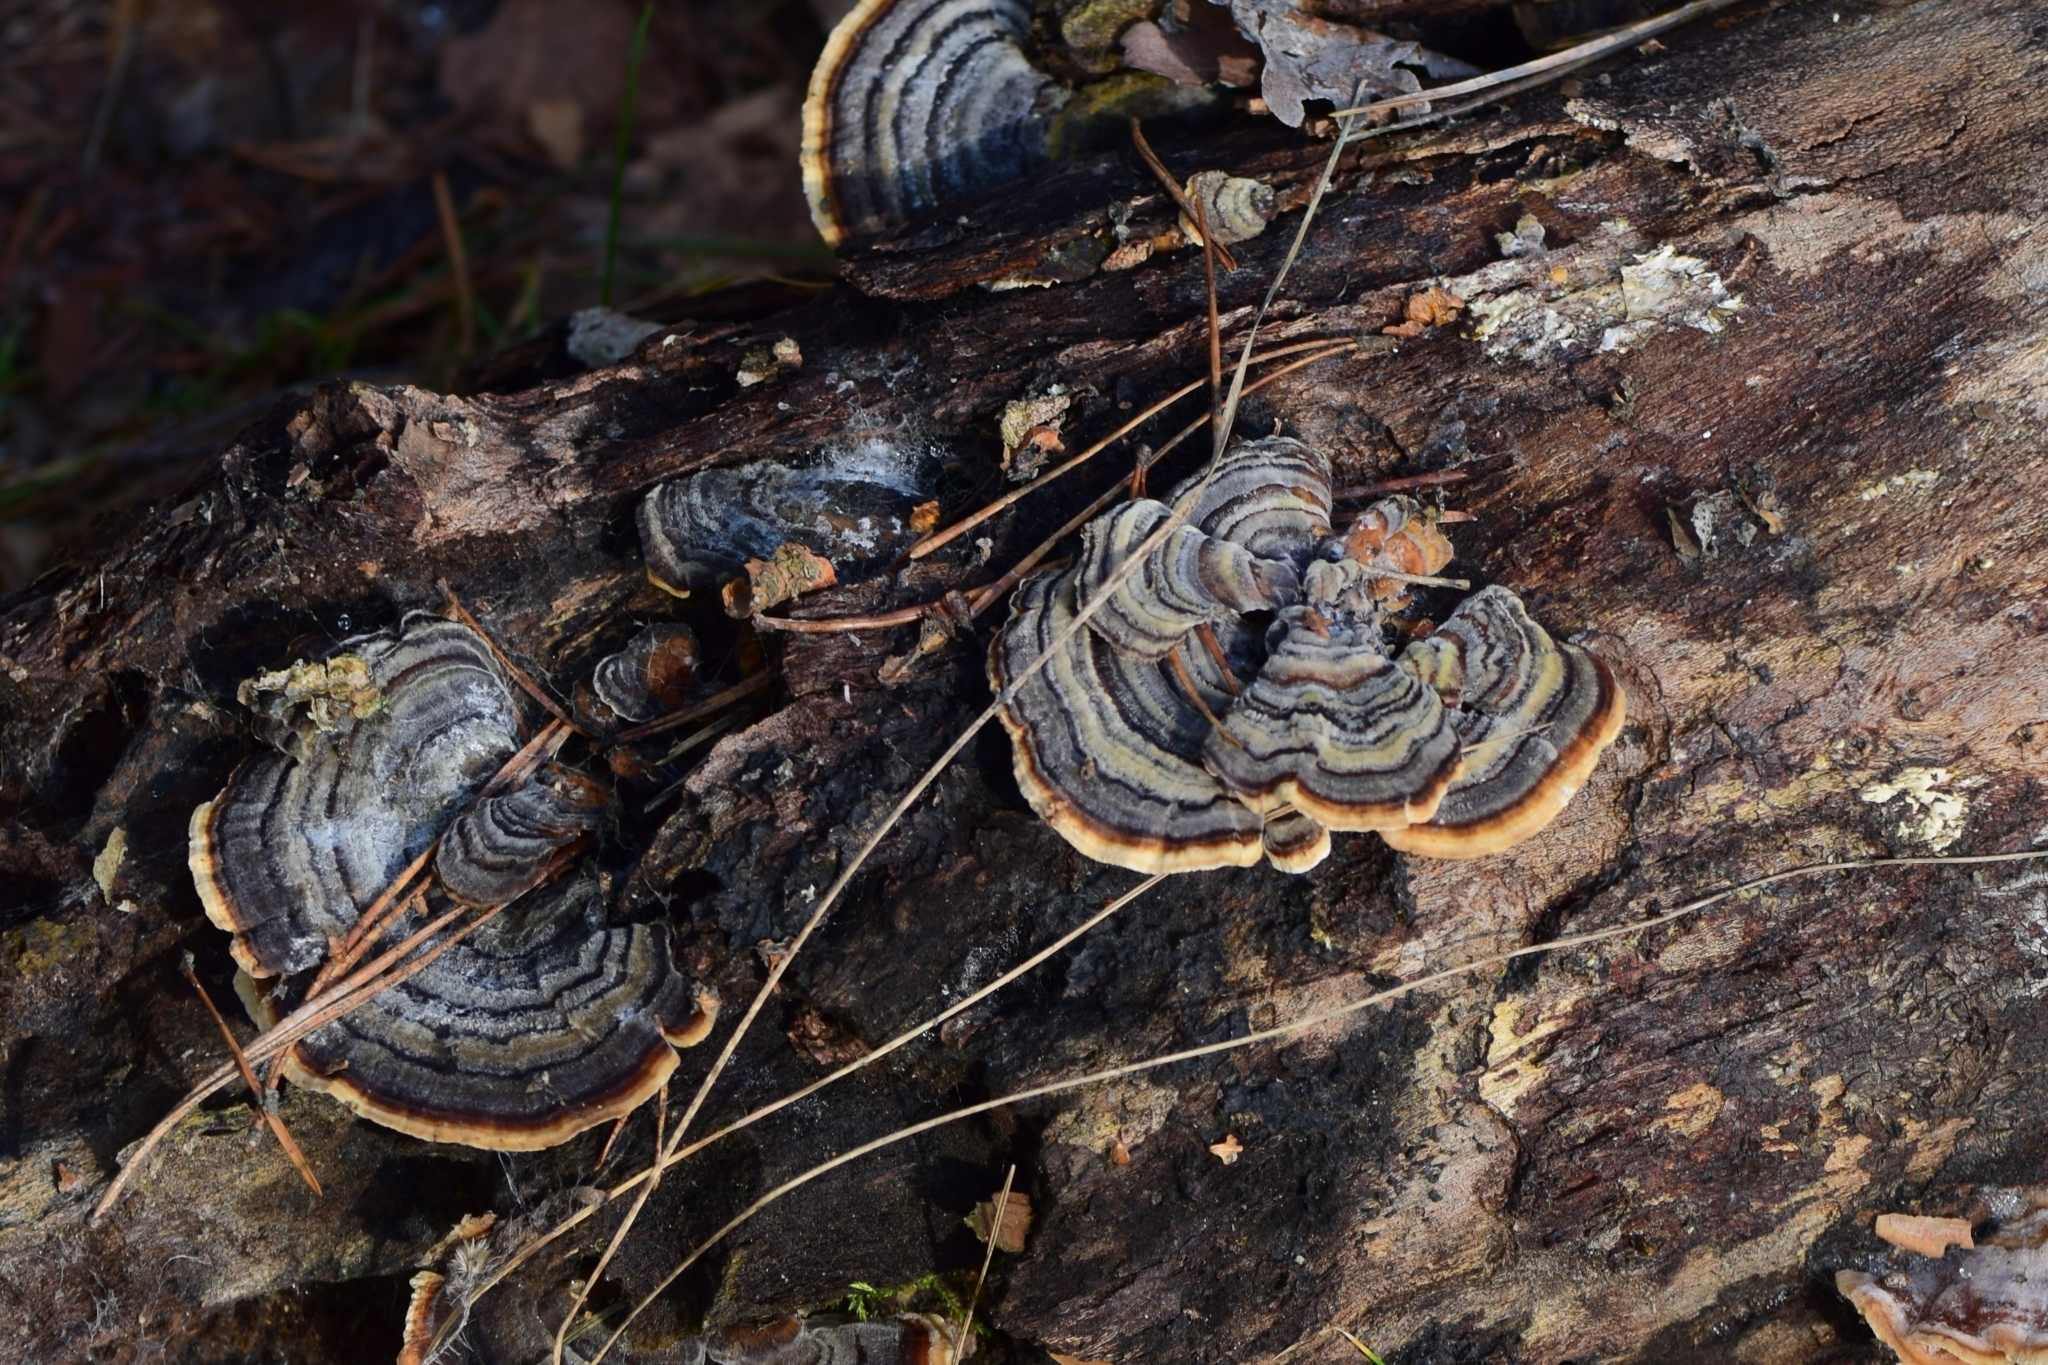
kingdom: Fungi
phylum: Basidiomycota
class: Agaricomycetes
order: Polyporales
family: Polyporaceae
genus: Trametes
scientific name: Trametes versicolor
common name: Turkeytail
